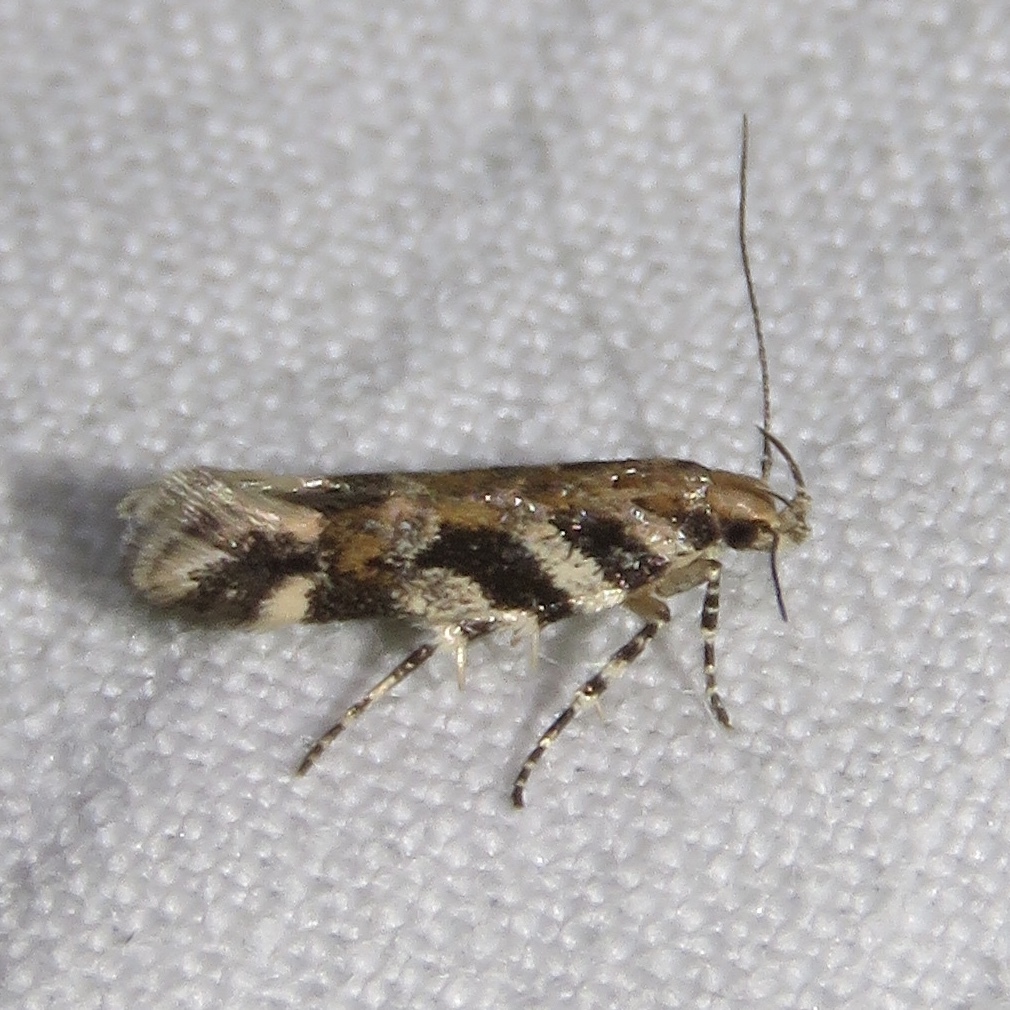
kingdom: Animalia
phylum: Arthropoda
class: Insecta
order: Lepidoptera
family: Gelechiidae
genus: Aristotelia
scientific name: Aristotelia roseosuffusella
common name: Pink-washed aristotelia moth
